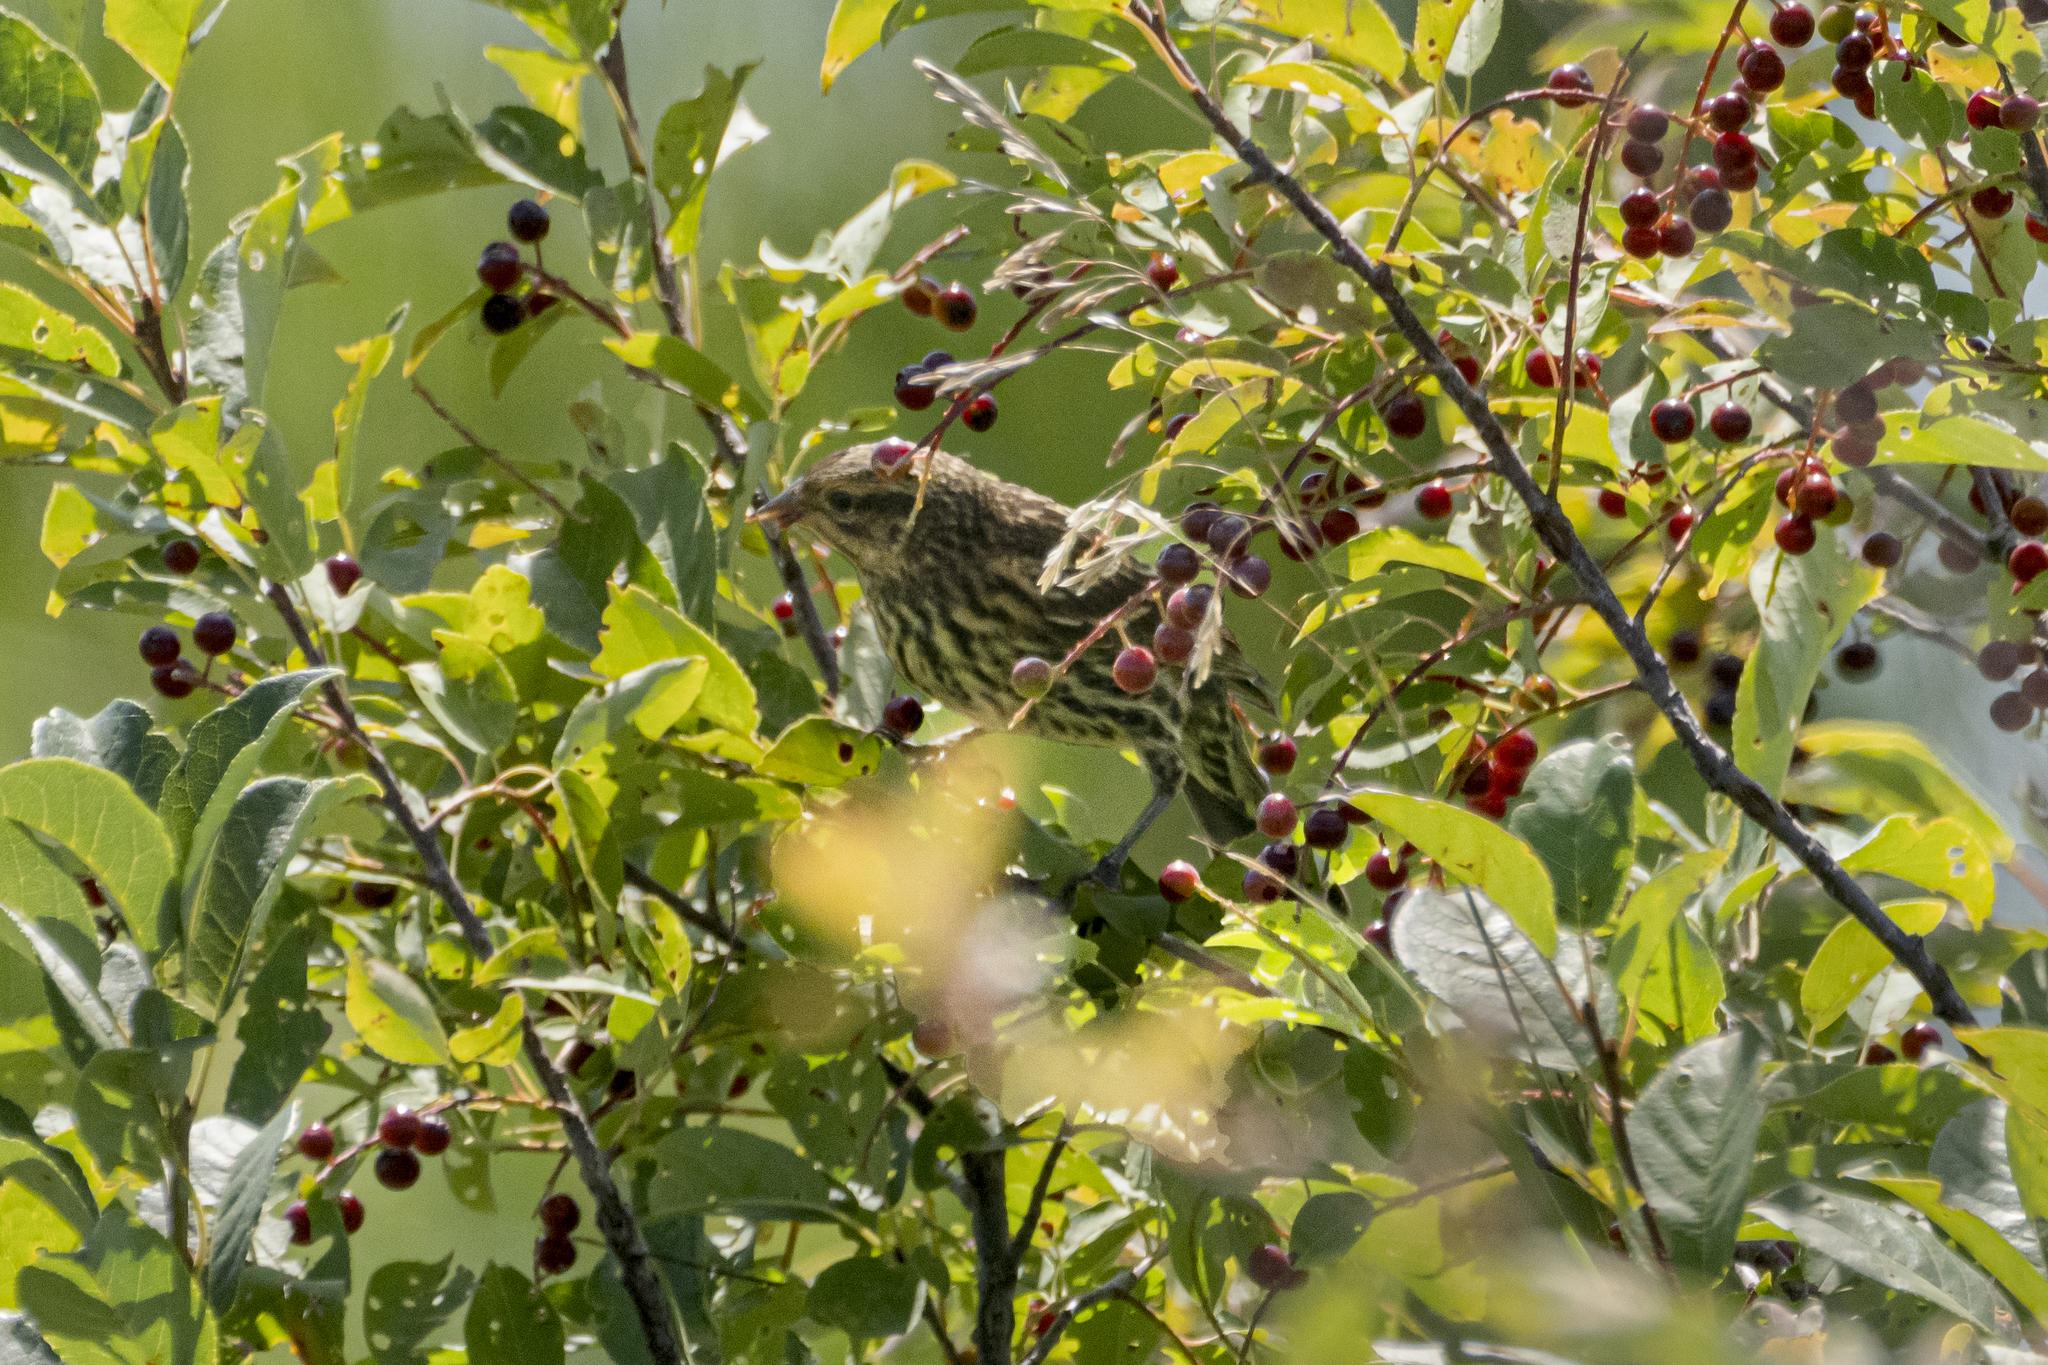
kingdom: Animalia
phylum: Chordata
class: Aves
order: Passeriformes
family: Icteridae
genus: Agelaius
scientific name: Agelaius phoeniceus
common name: Red-winged blackbird
